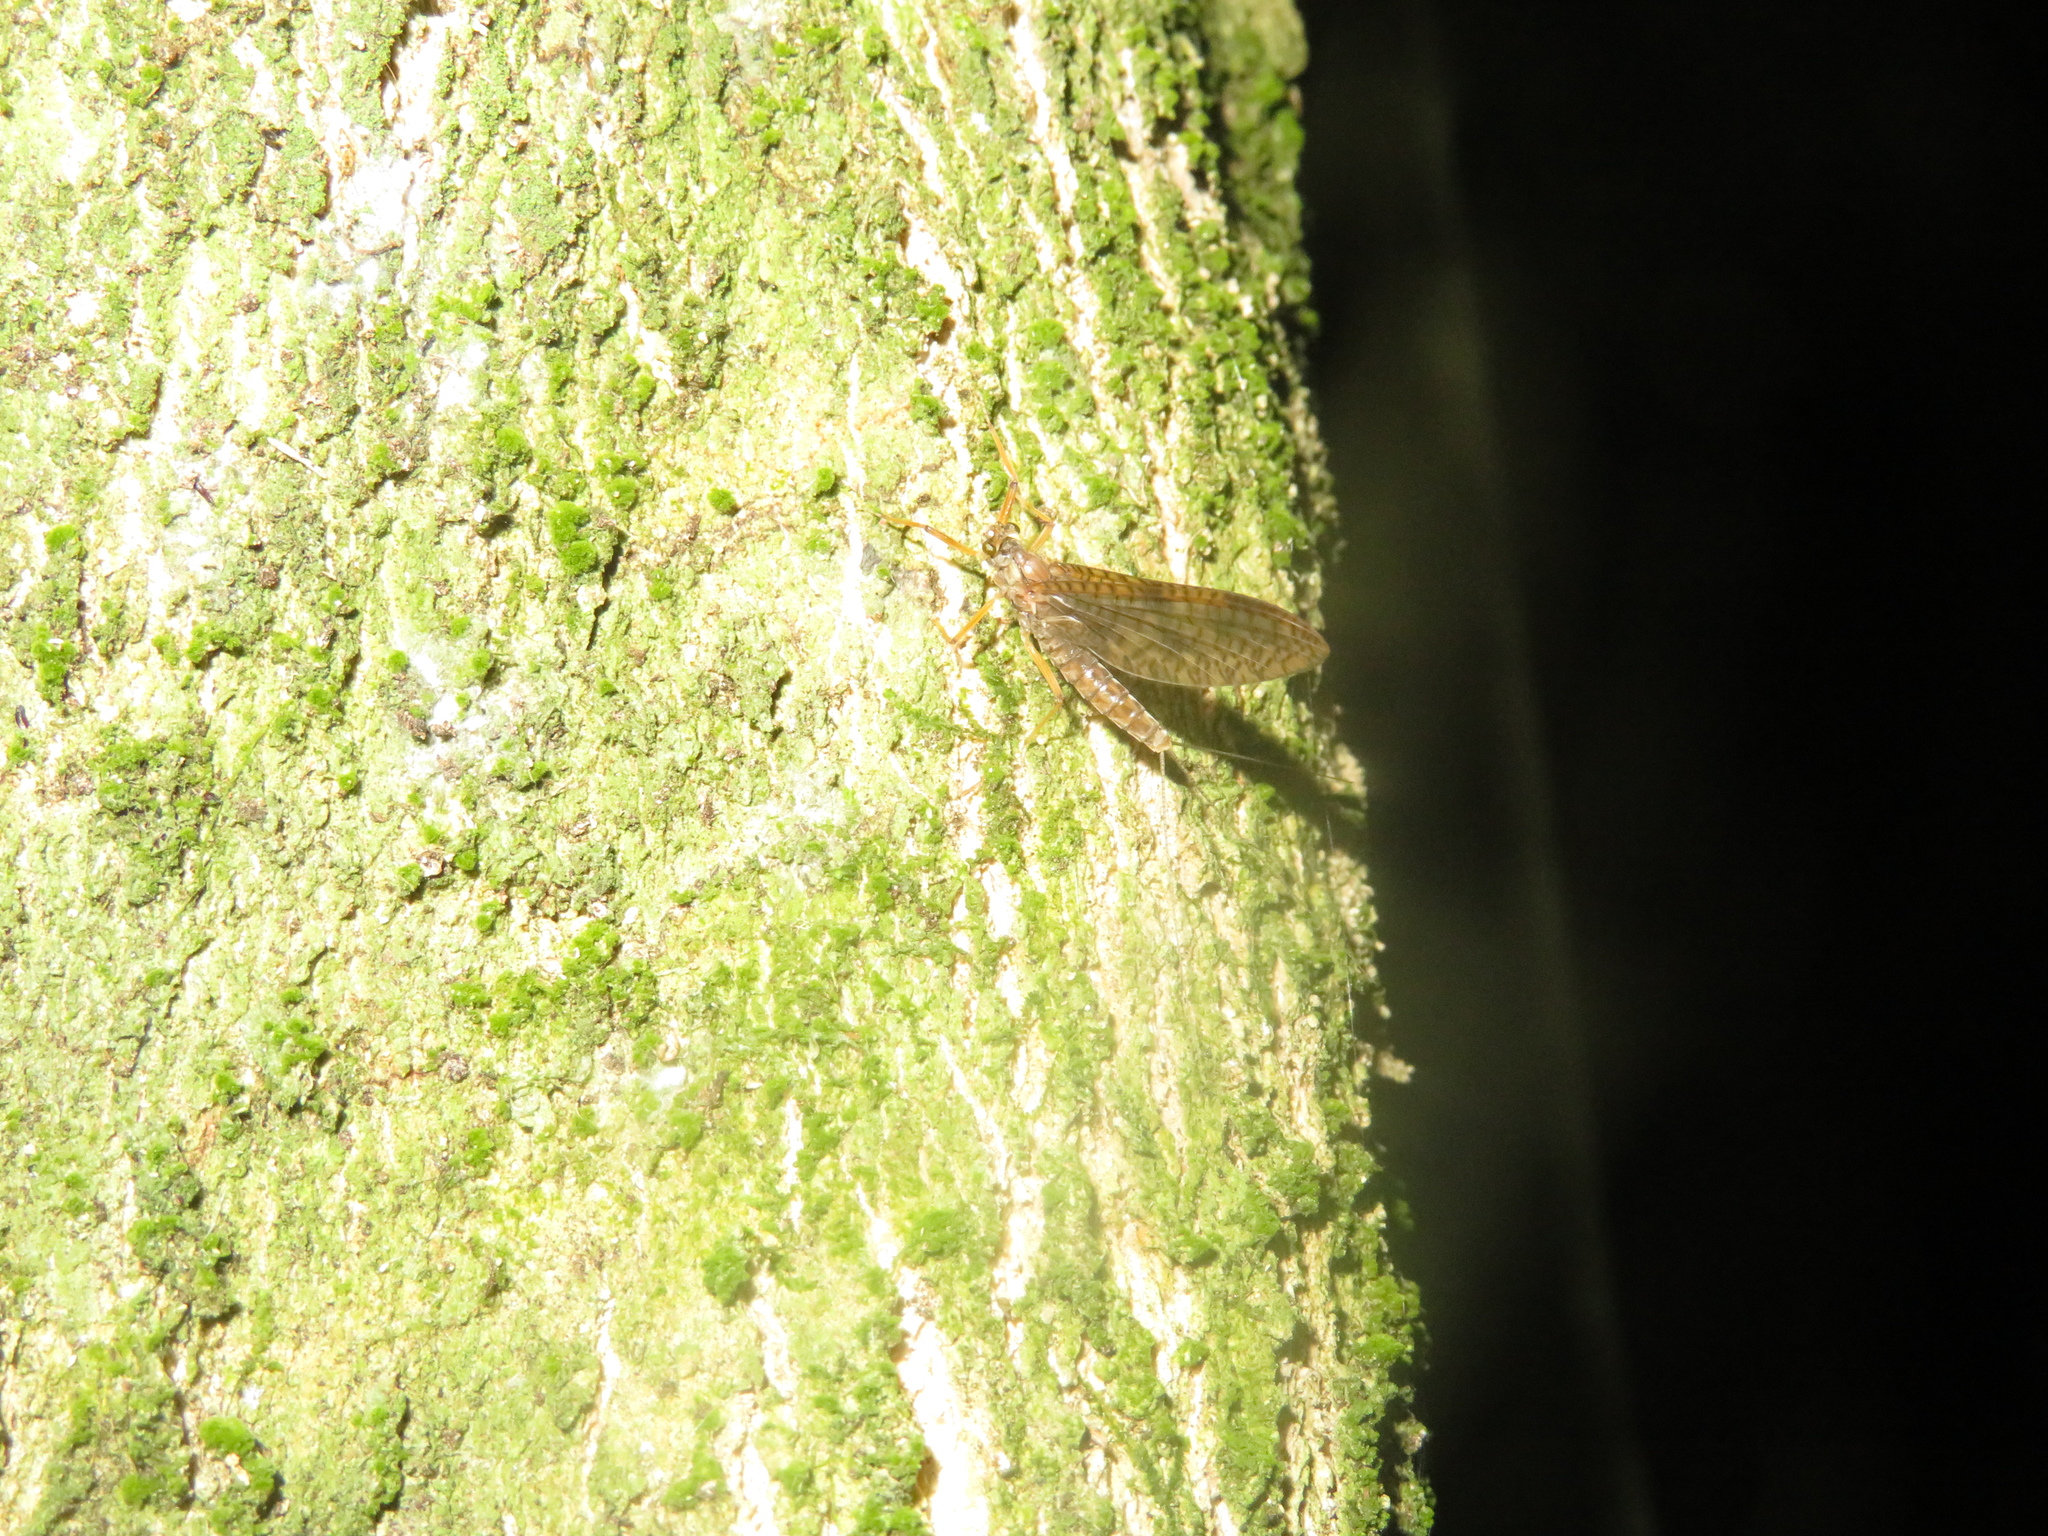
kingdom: Animalia
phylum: Arthropoda
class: Insecta
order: Ephemeroptera
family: Leptophlebiidae
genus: Zephlebia
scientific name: Zephlebia dentata
